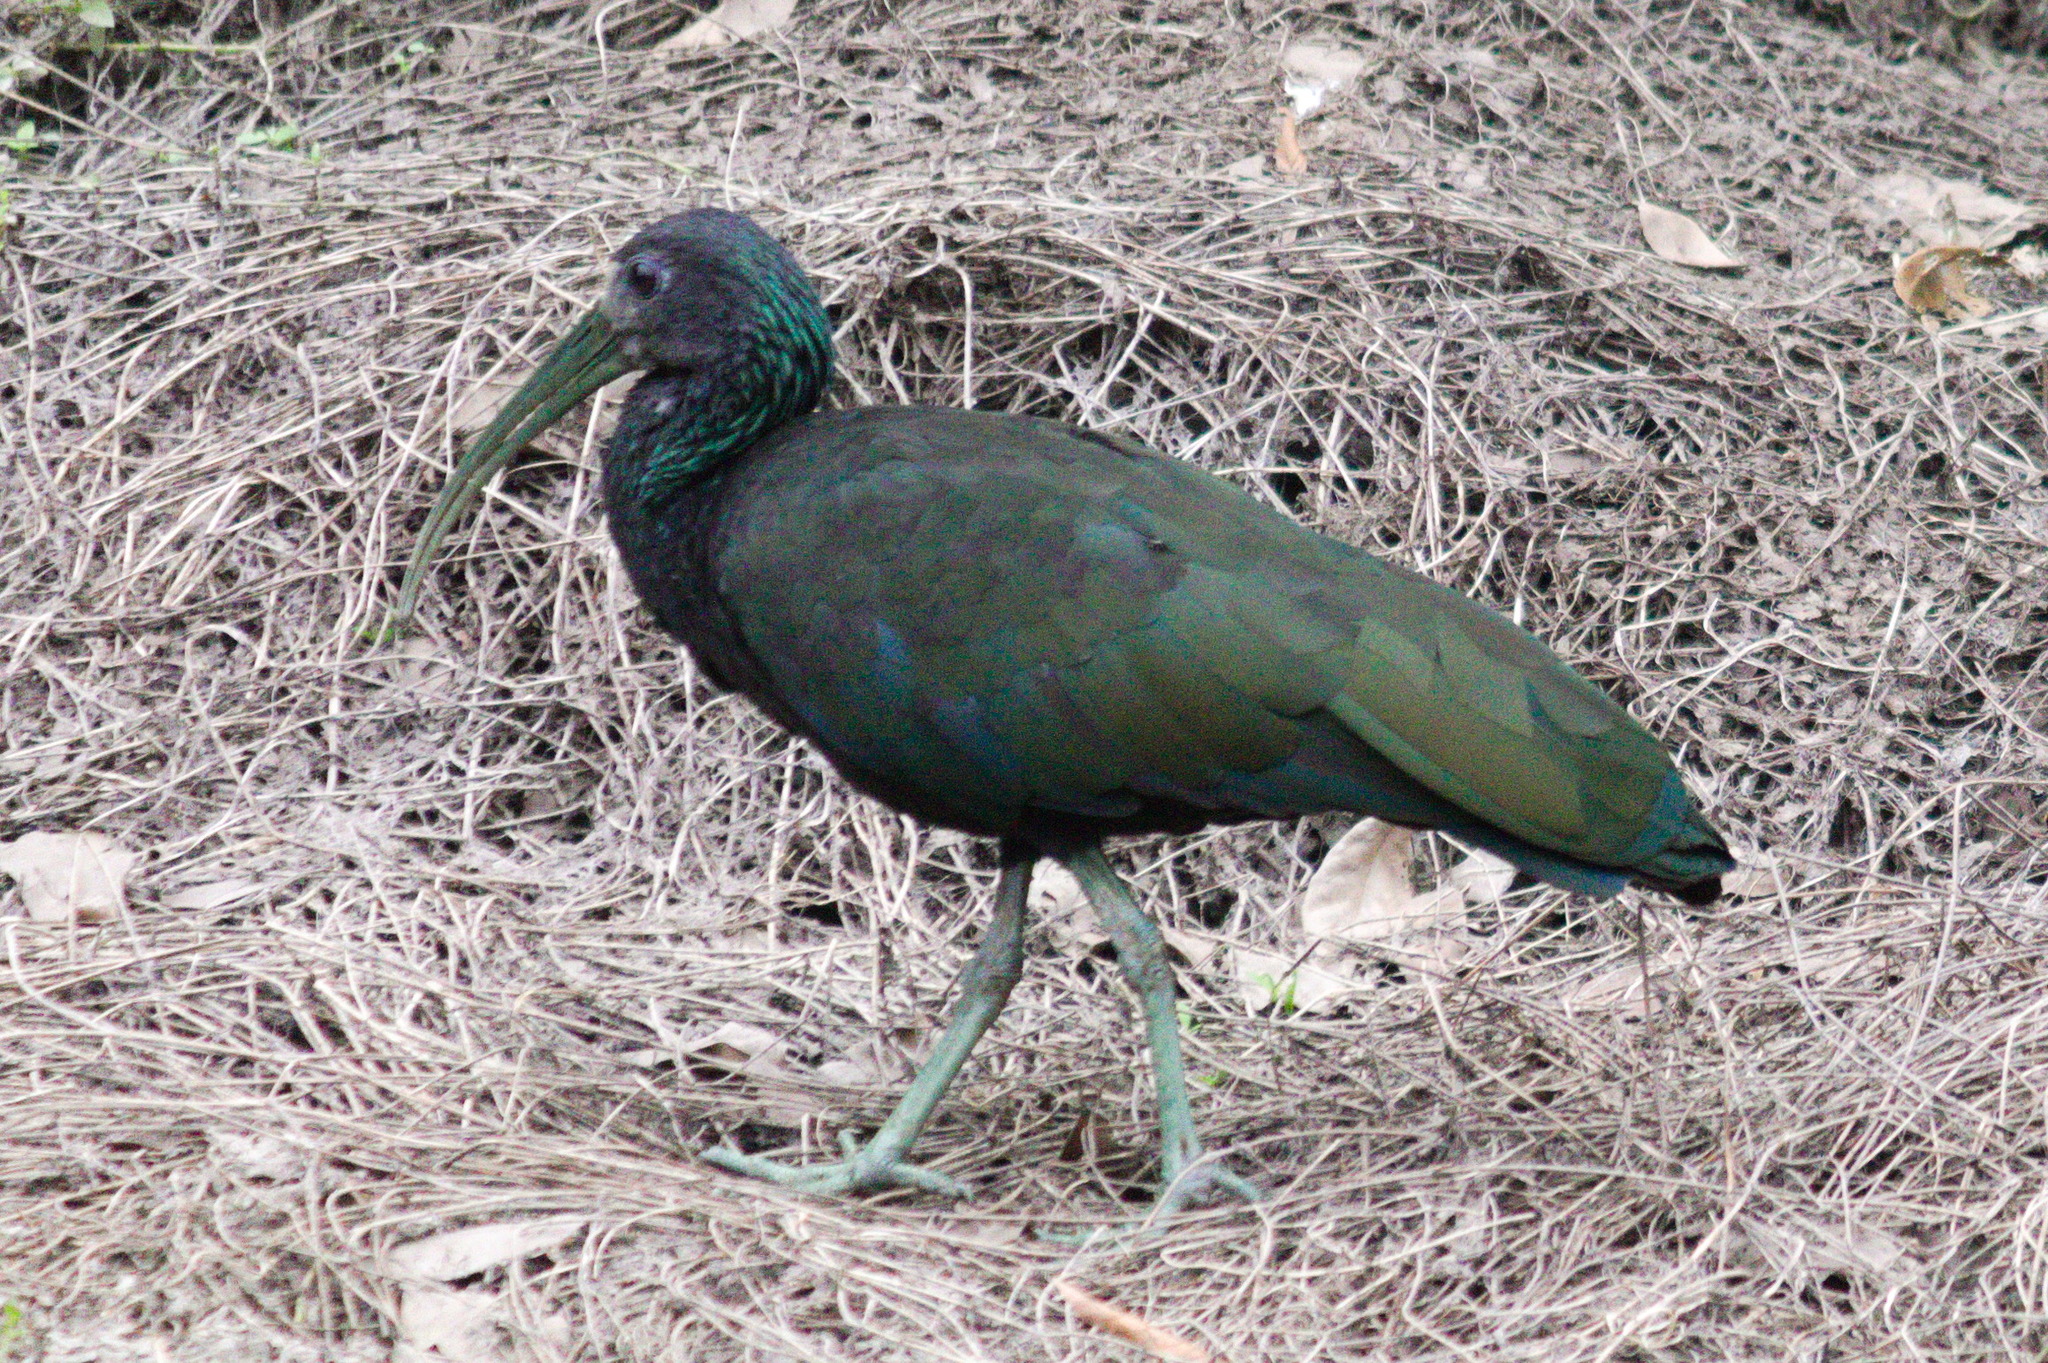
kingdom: Animalia
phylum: Chordata
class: Aves
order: Pelecaniformes
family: Threskiornithidae
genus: Mesembrinibis
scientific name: Mesembrinibis cayennensis
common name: Green ibis
